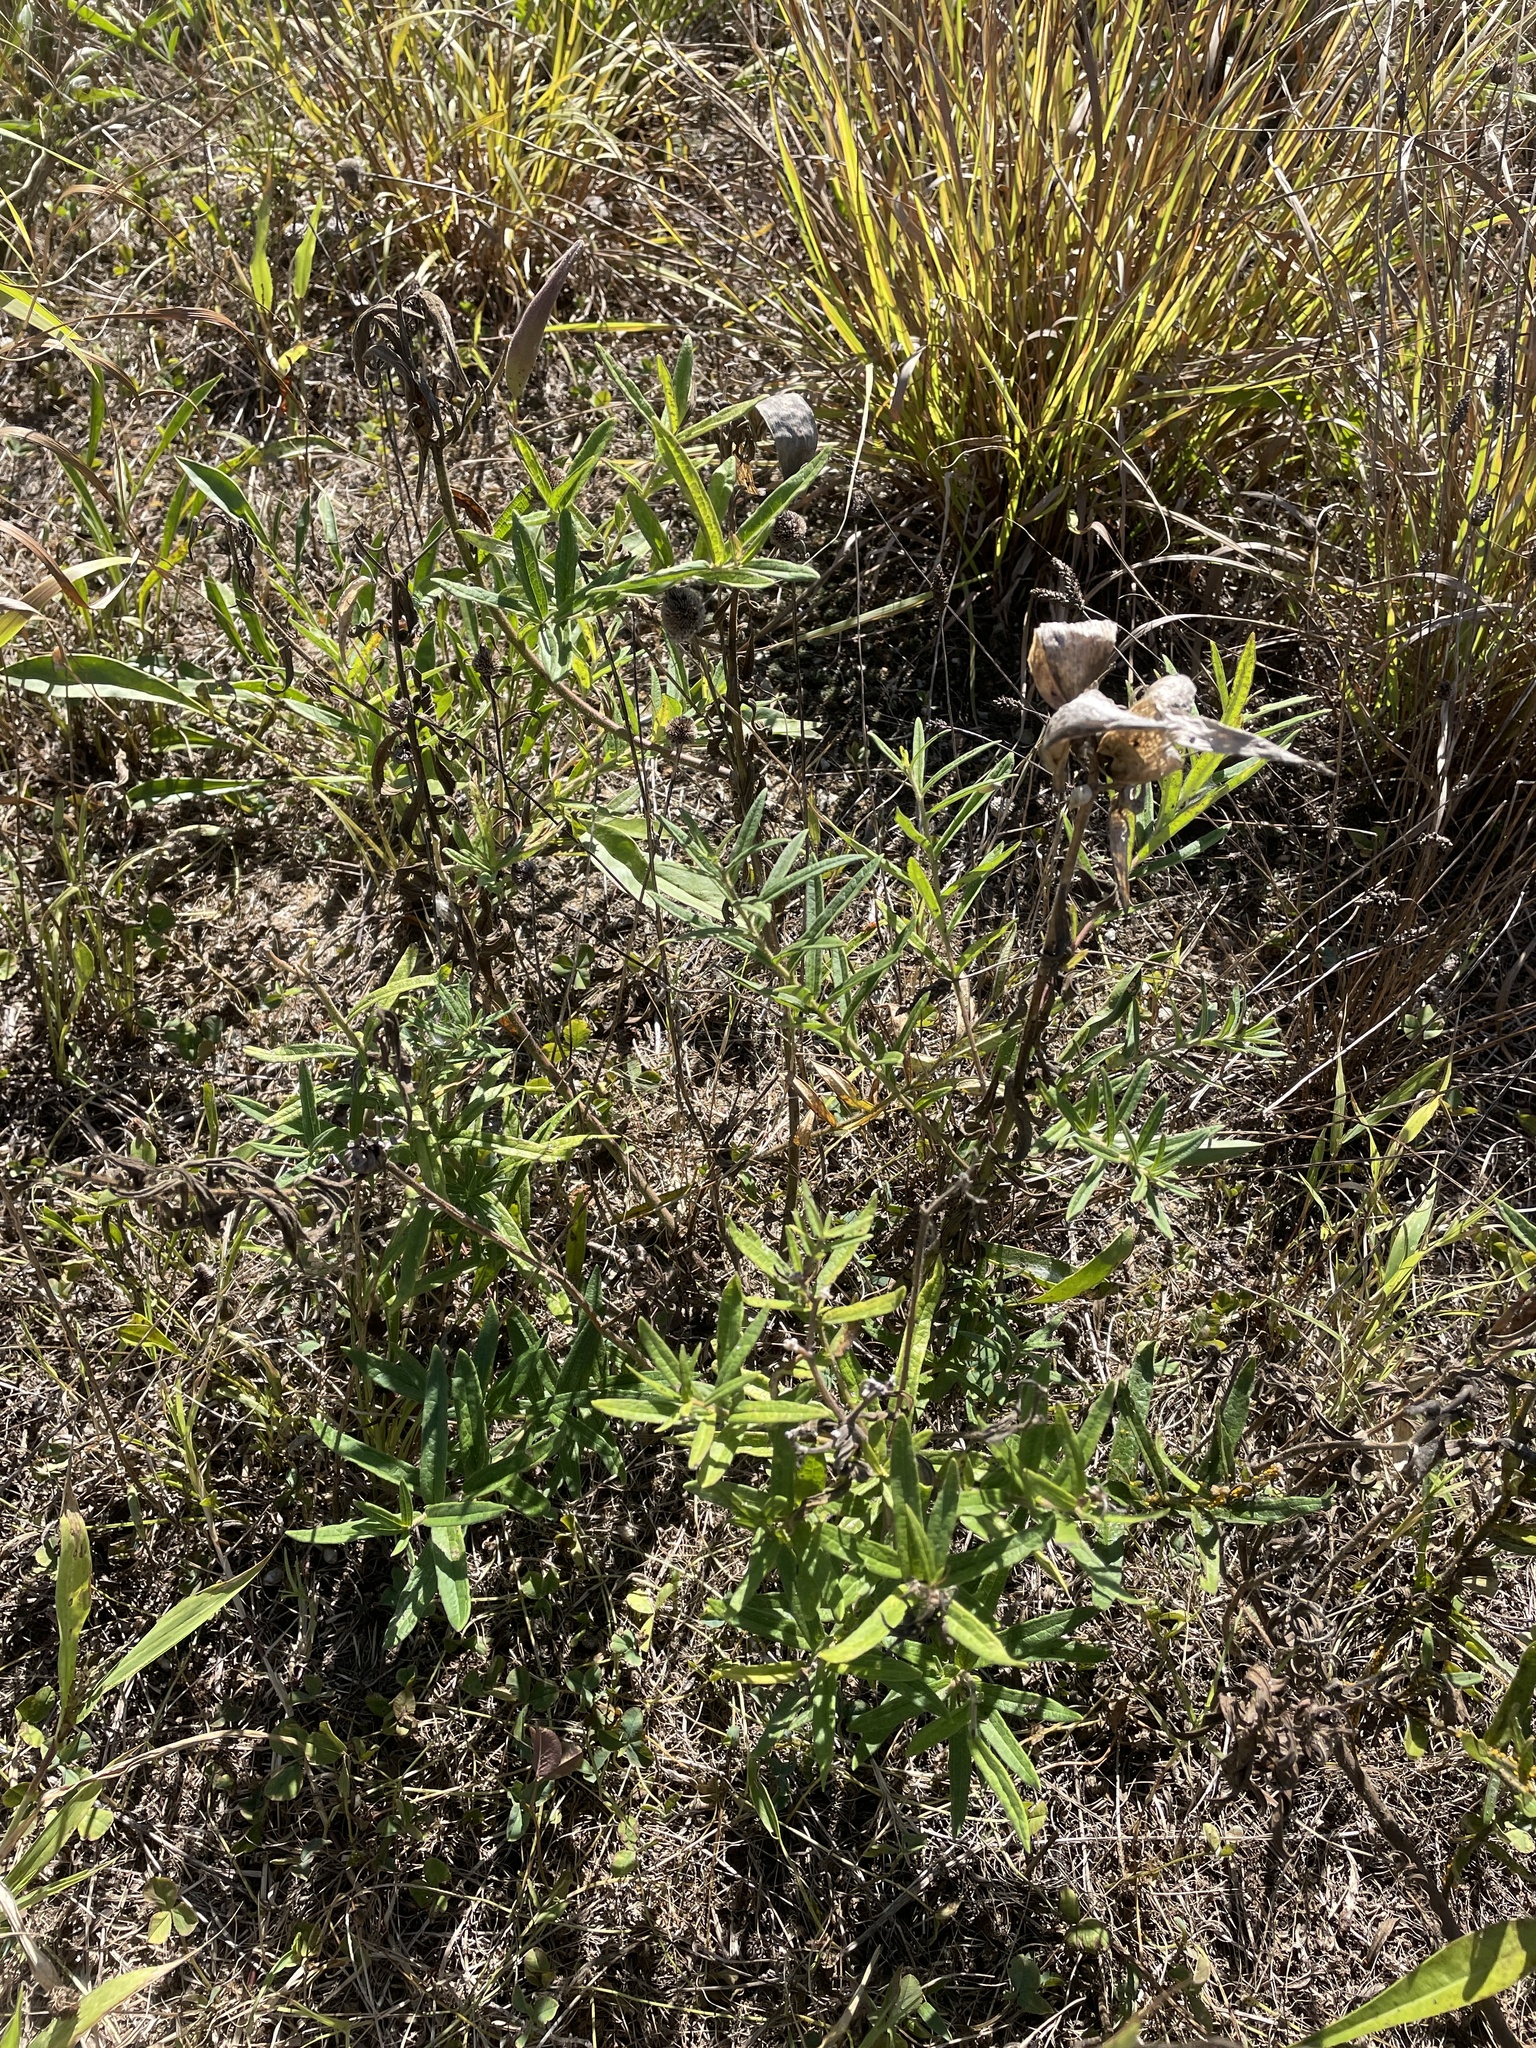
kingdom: Plantae
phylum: Tracheophyta
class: Magnoliopsida
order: Gentianales
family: Apocynaceae
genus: Asclepias
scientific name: Asclepias tuberosa
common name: Butterfly milkweed
